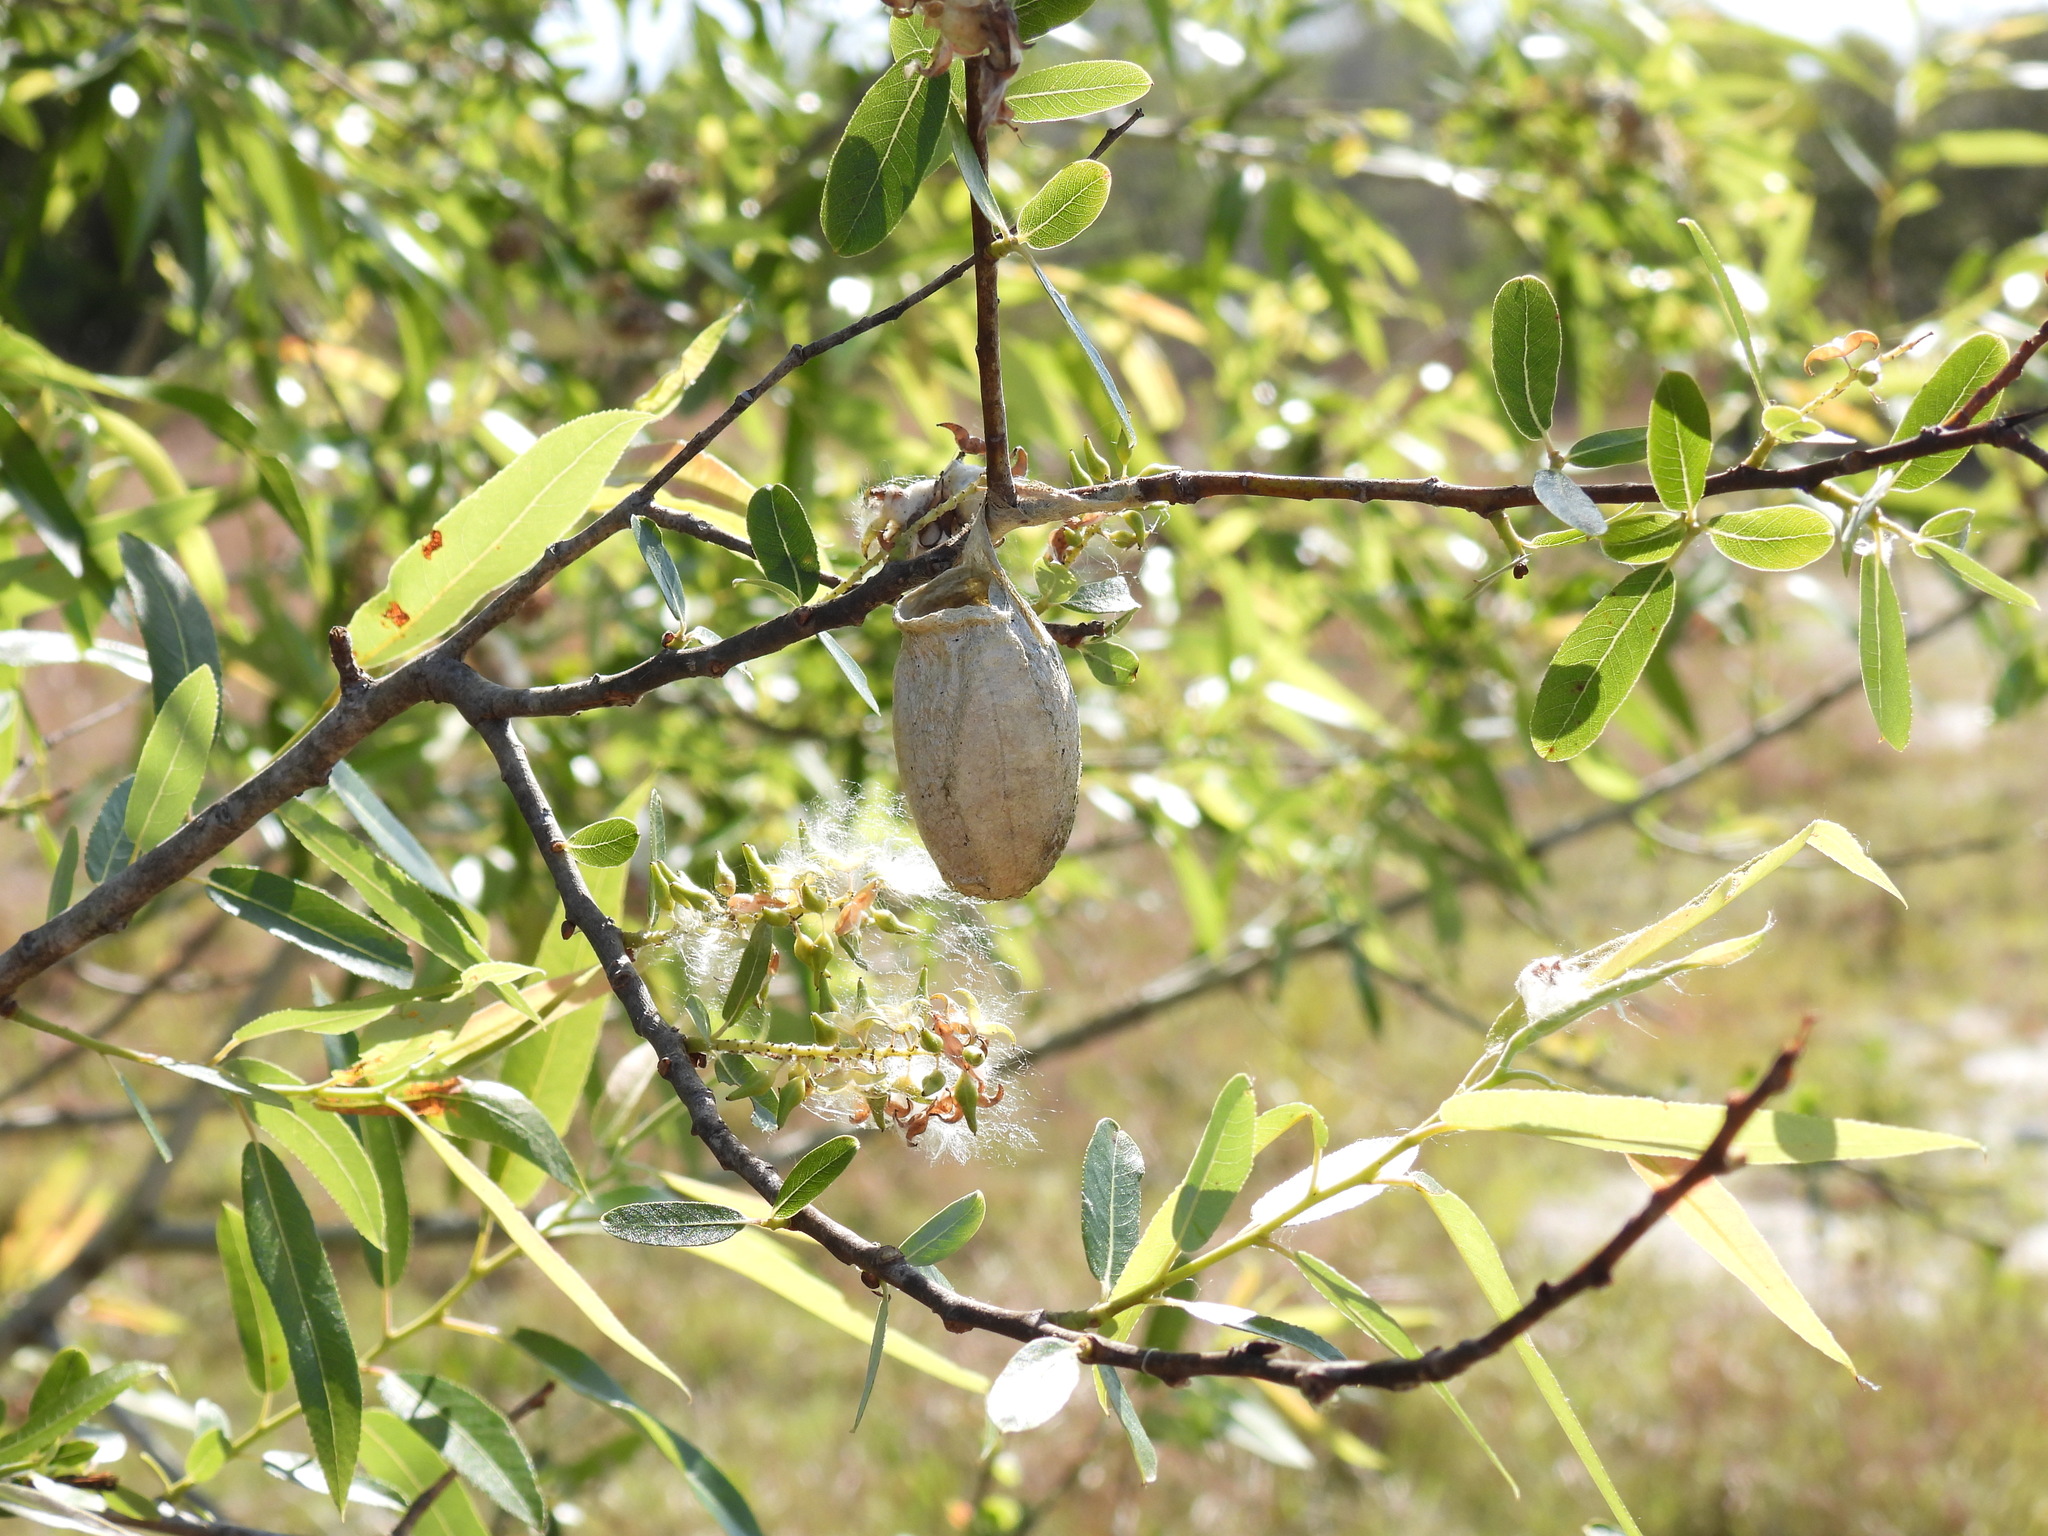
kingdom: Animalia
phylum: Arthropoda
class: Insecta
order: Lepidoptera
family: Saturniidae
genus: Antheraea
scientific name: Antheraea polyphemus
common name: Polyphemus moth
